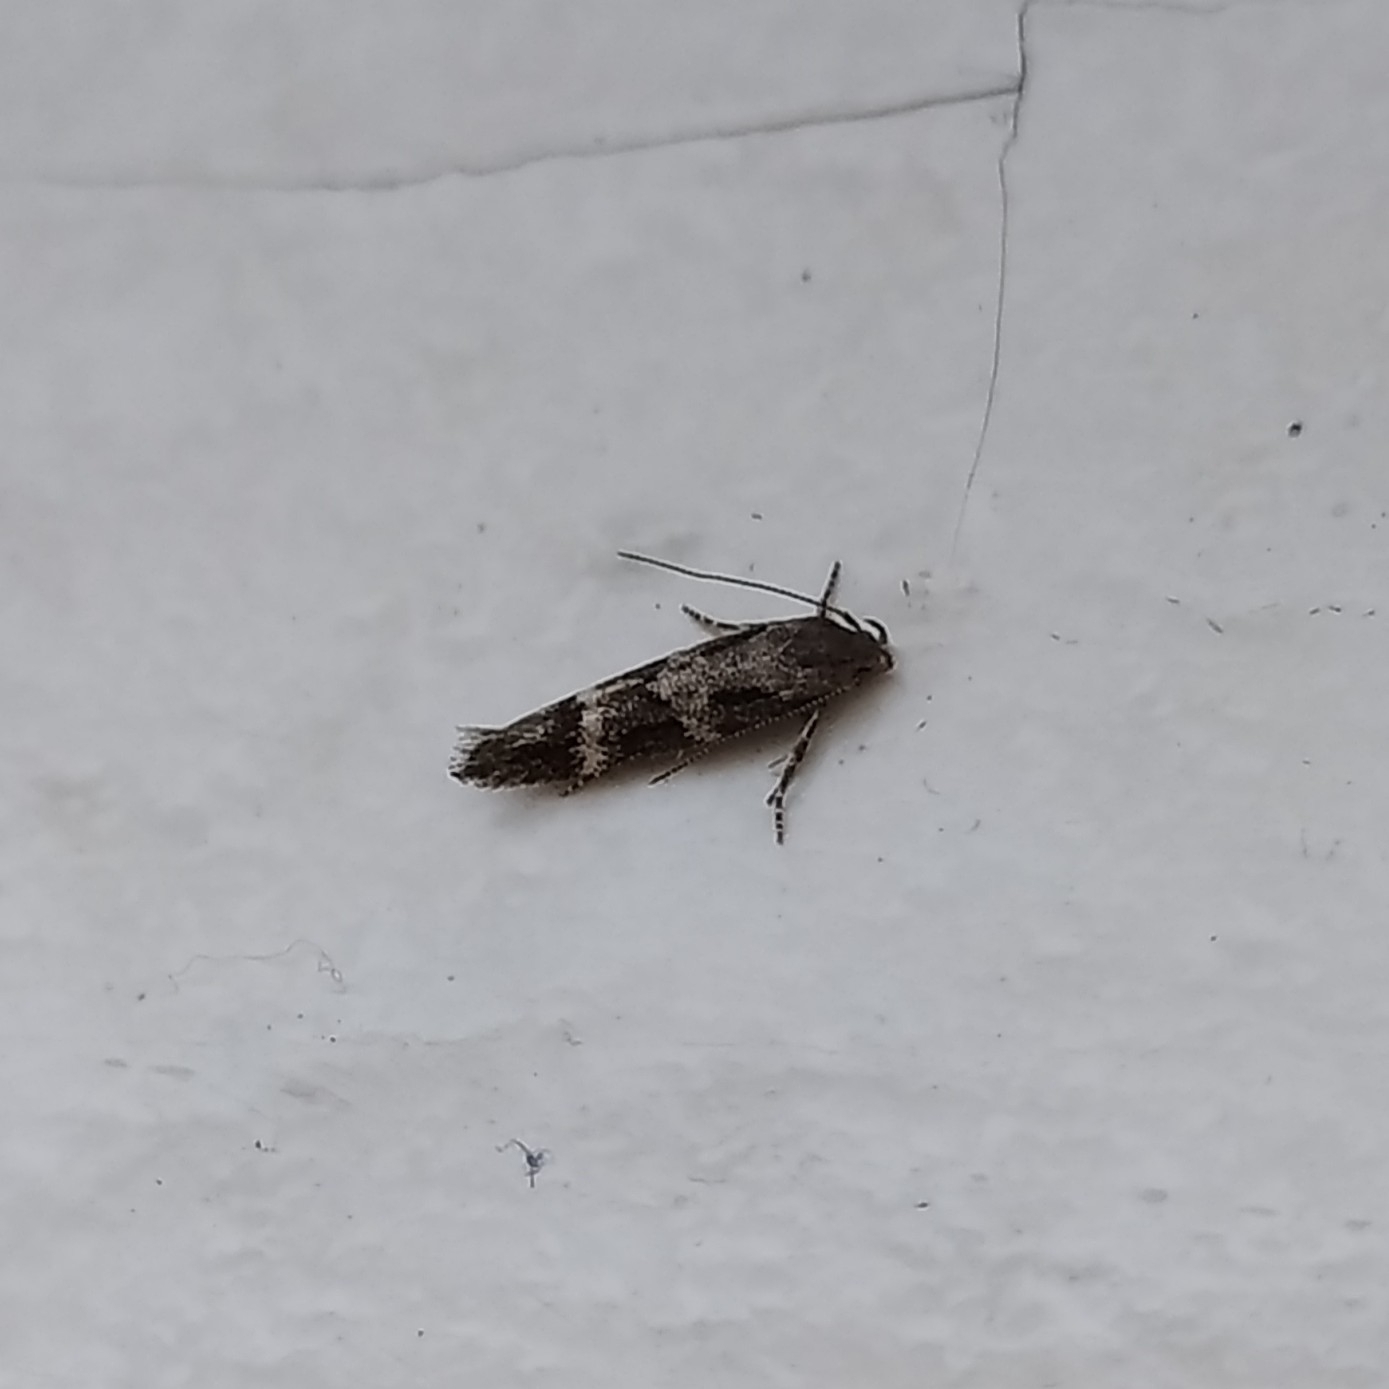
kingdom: Animalia
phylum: Arthropoda
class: Insecta
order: Lepidoptera
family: Momphidae
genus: Mompha
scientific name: Mompha subbistrigella
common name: Garden cosmet
